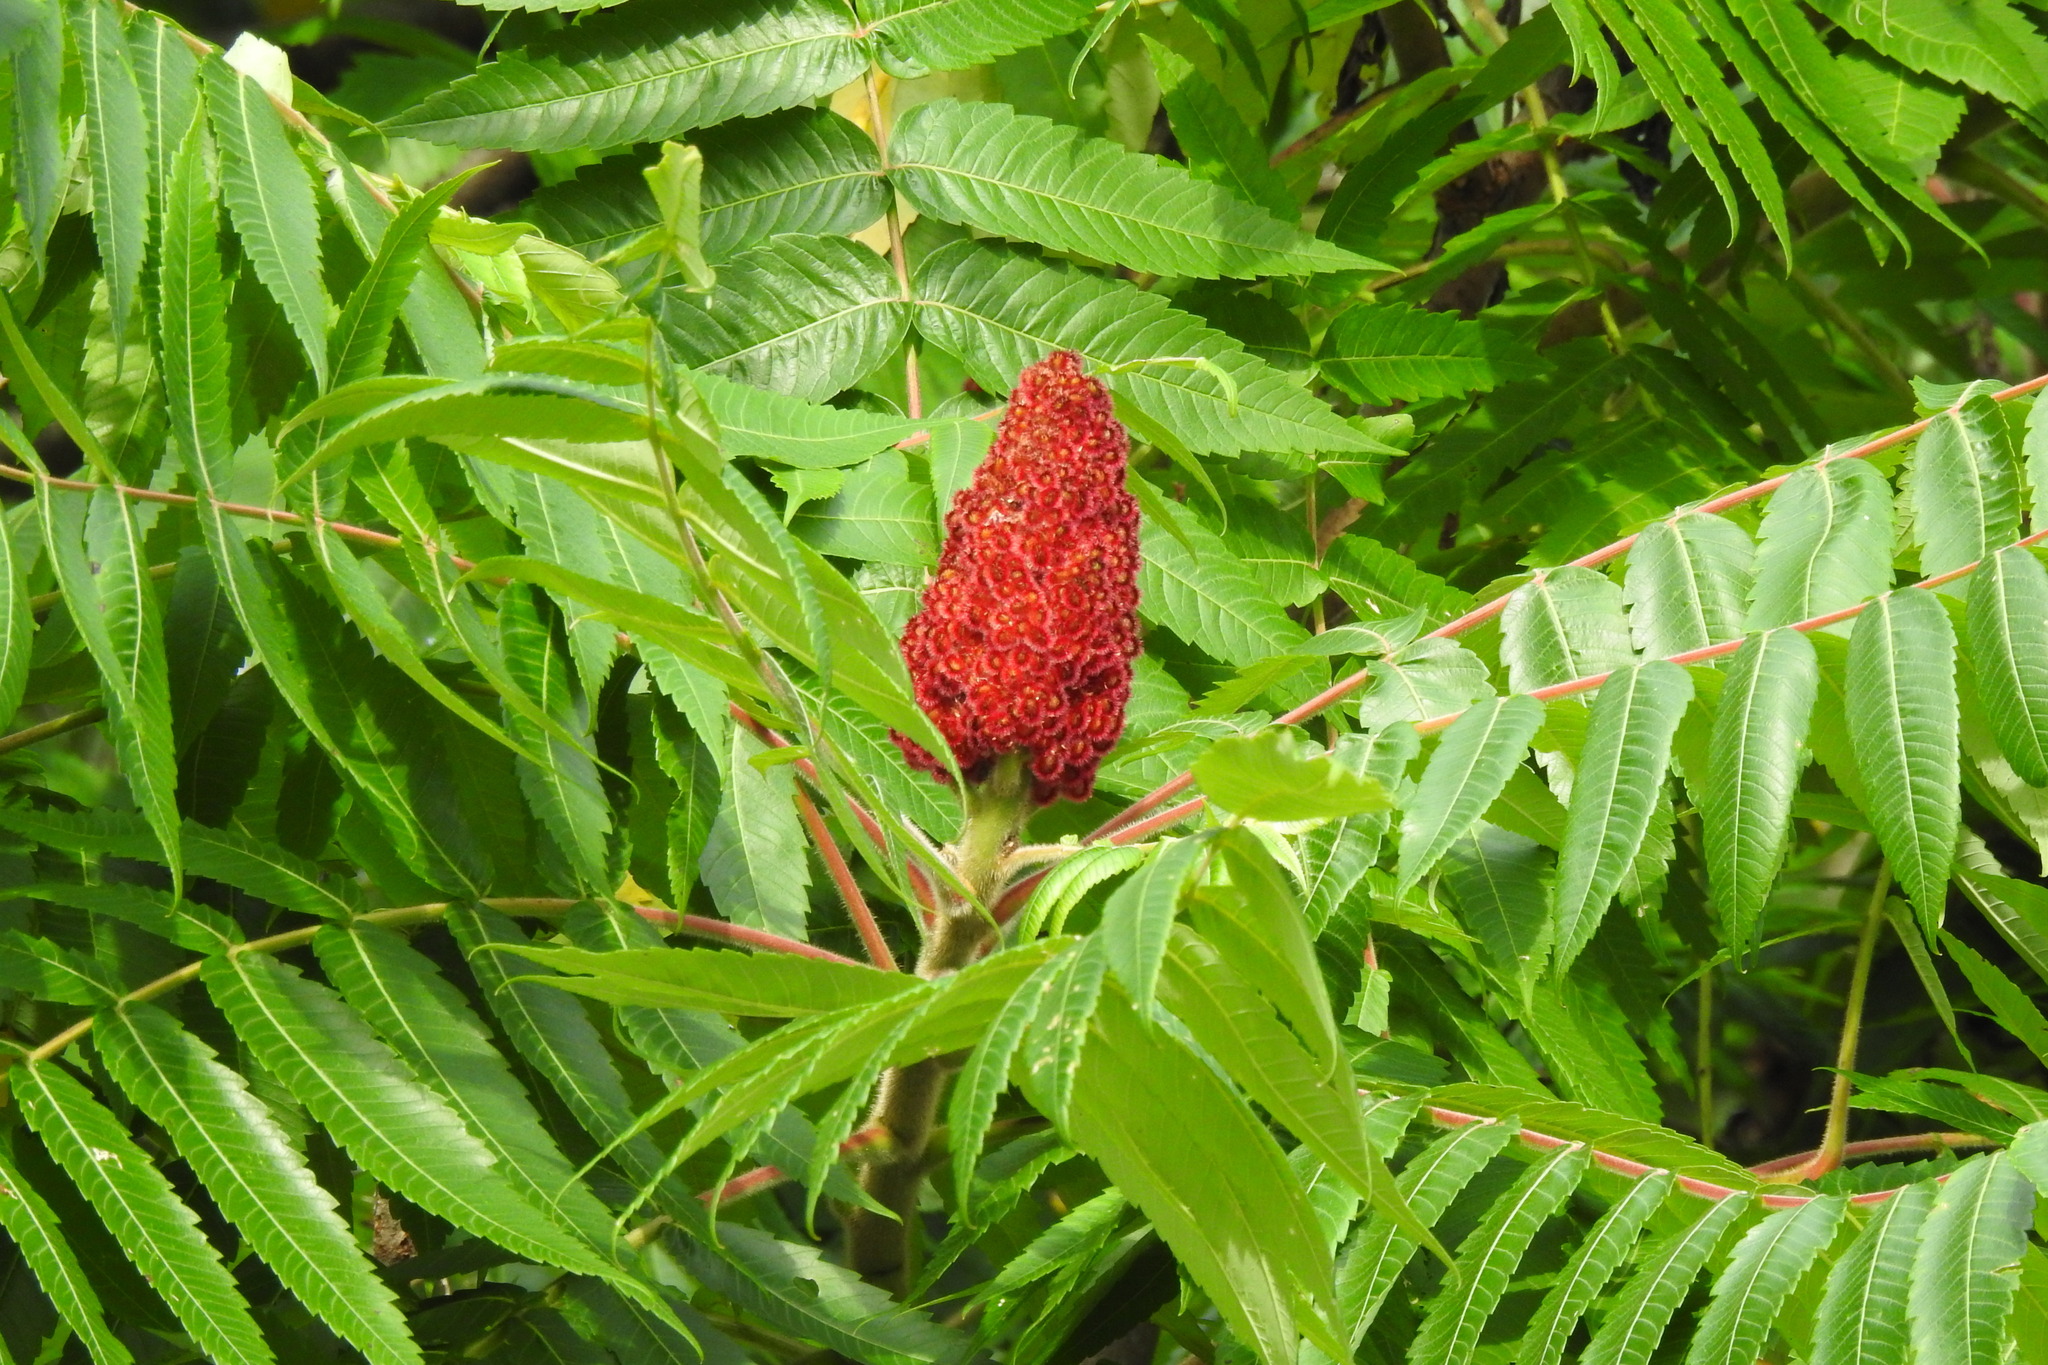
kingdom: Plantae
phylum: Tracheophyta
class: Magnoliopsida
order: Sapindales
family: Anacardiaceae
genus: Rhus
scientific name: Rhus typhina
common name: Staghorn sumac
